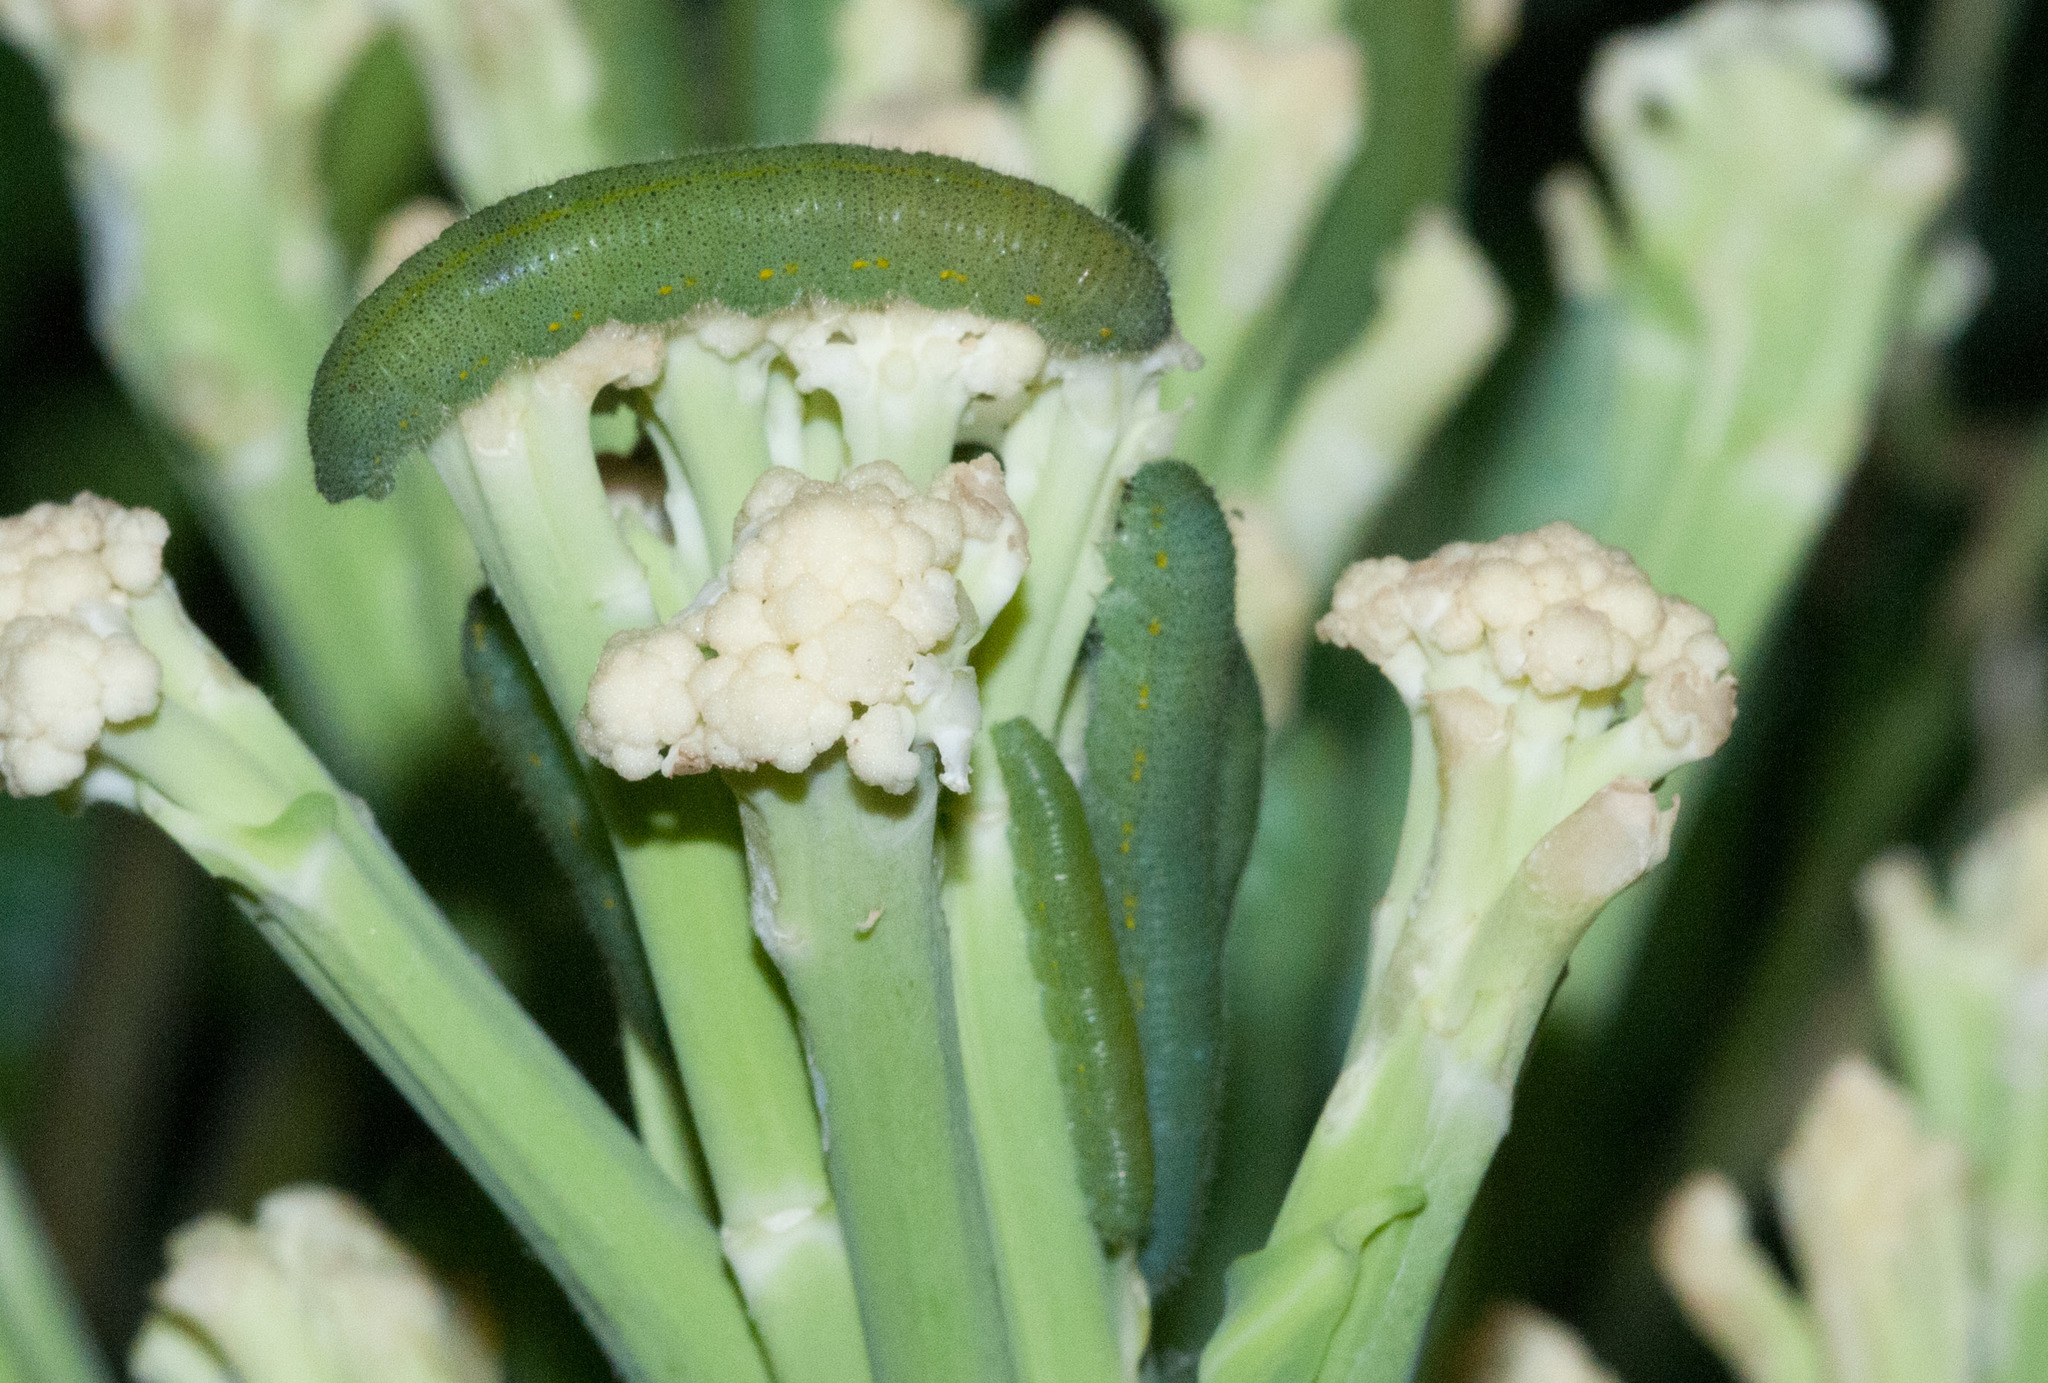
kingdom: Animalia
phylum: Arthropoda
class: Insecta
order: Lepidoptera
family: Pieridae
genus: Pieris
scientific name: Pieris rapae
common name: Small white
